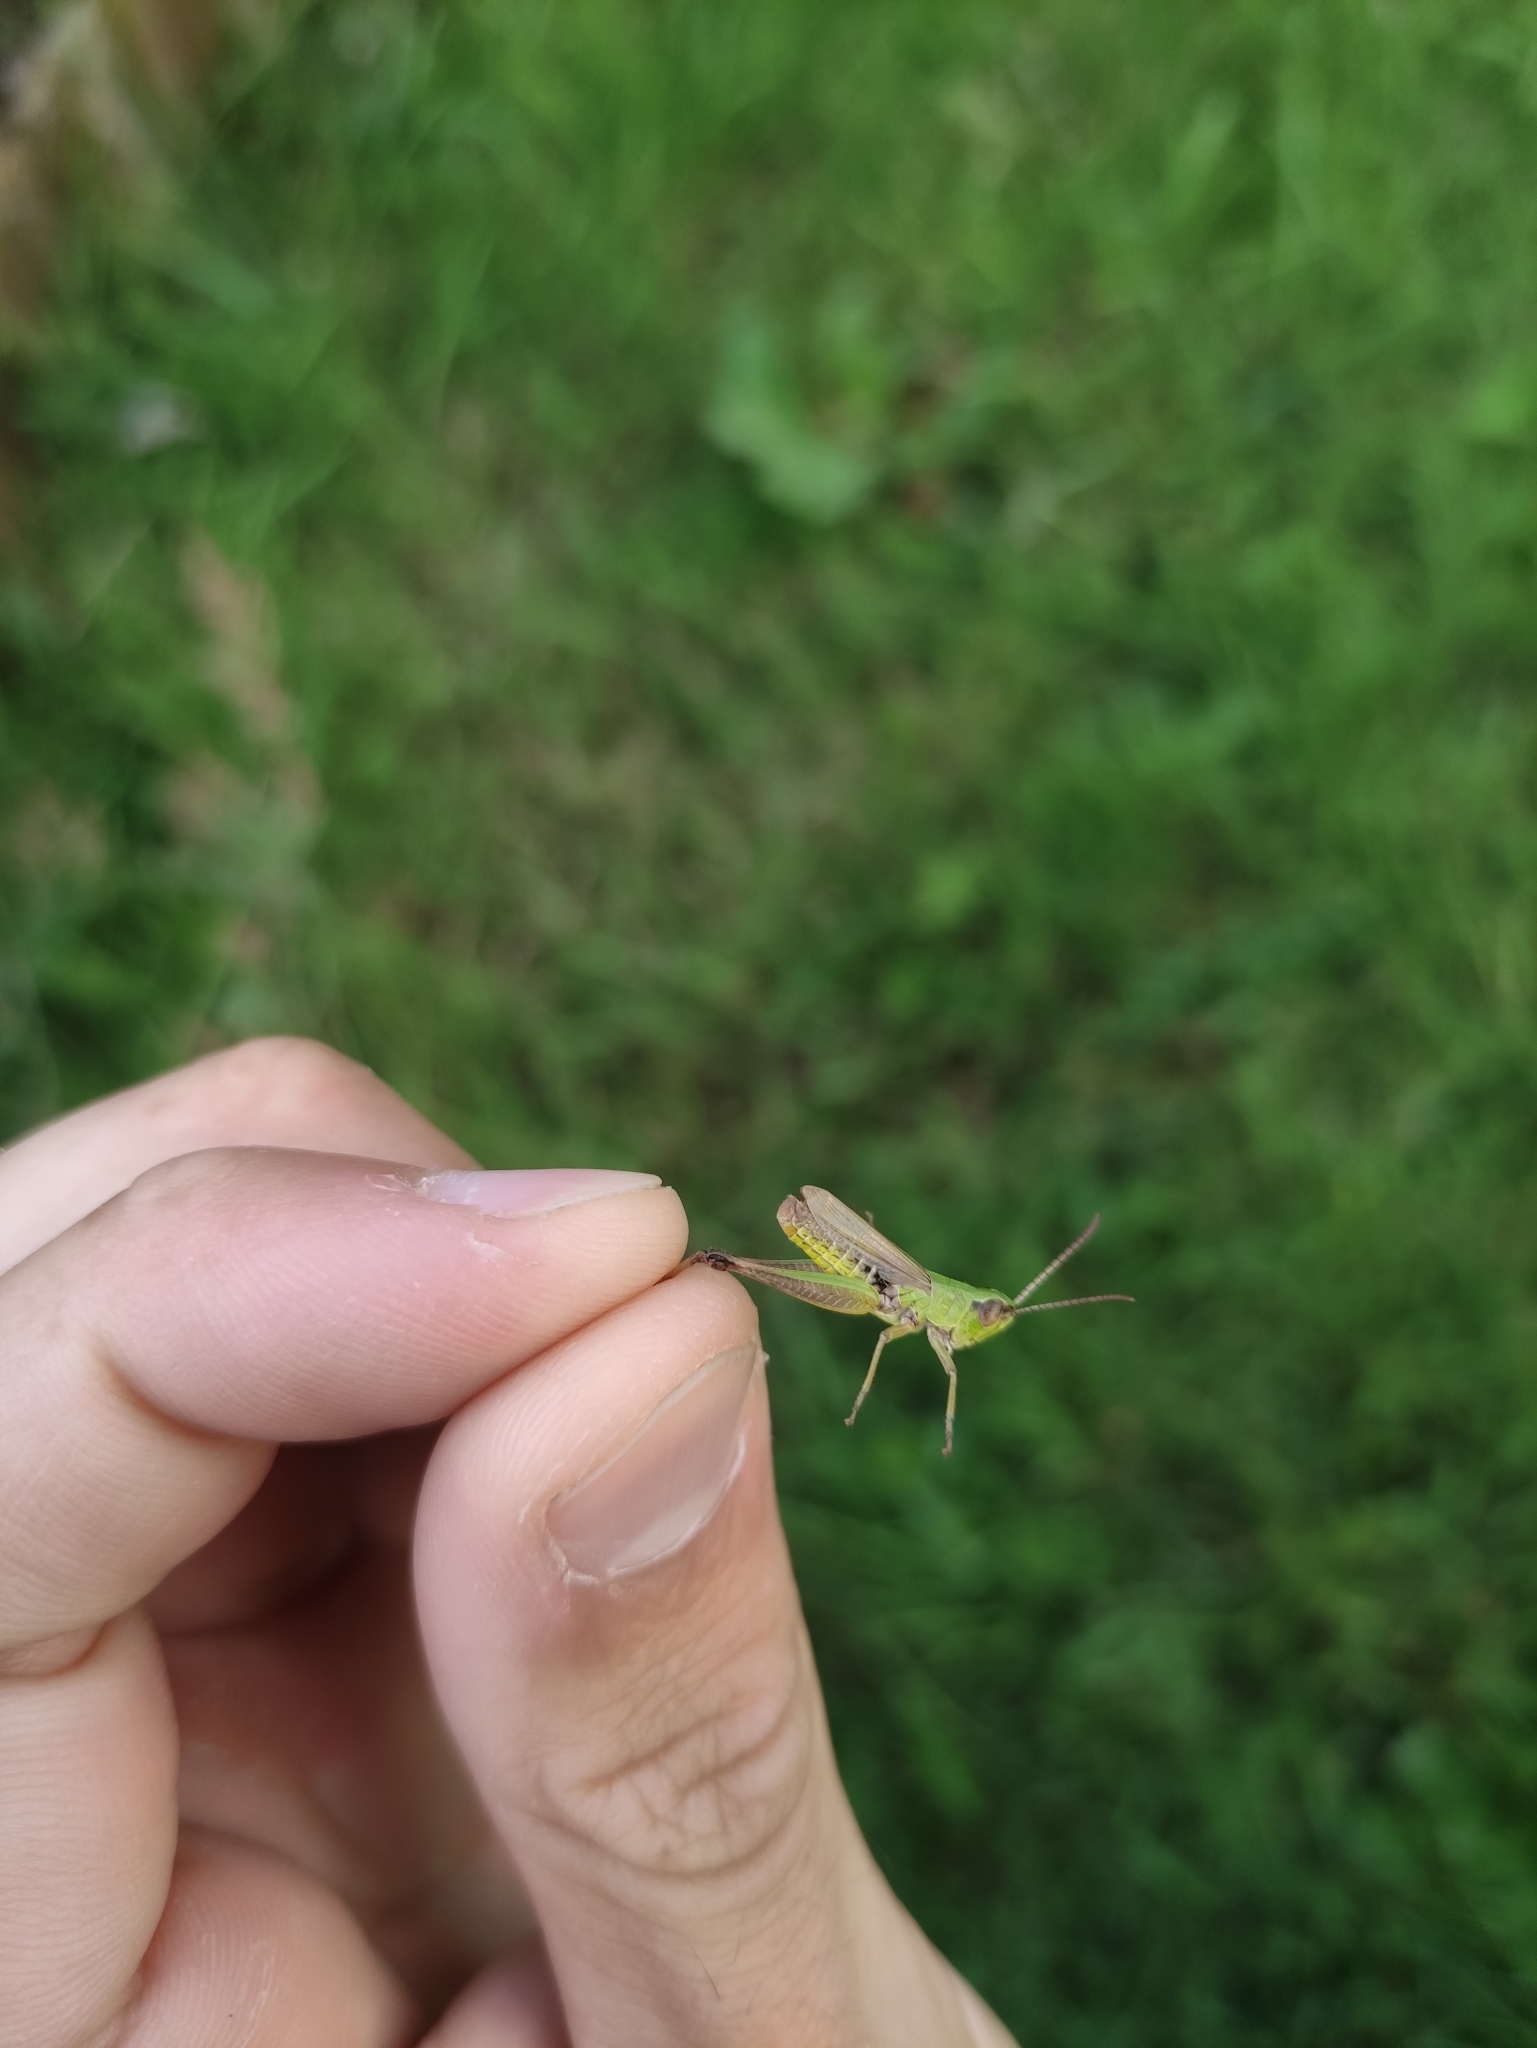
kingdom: Animalia
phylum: Arthropoda
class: Insecta
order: Orthoptera
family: Acrididae
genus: Pseudochorthippus
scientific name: Pseudochorthippus parallelus
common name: Meadow grasshopper
